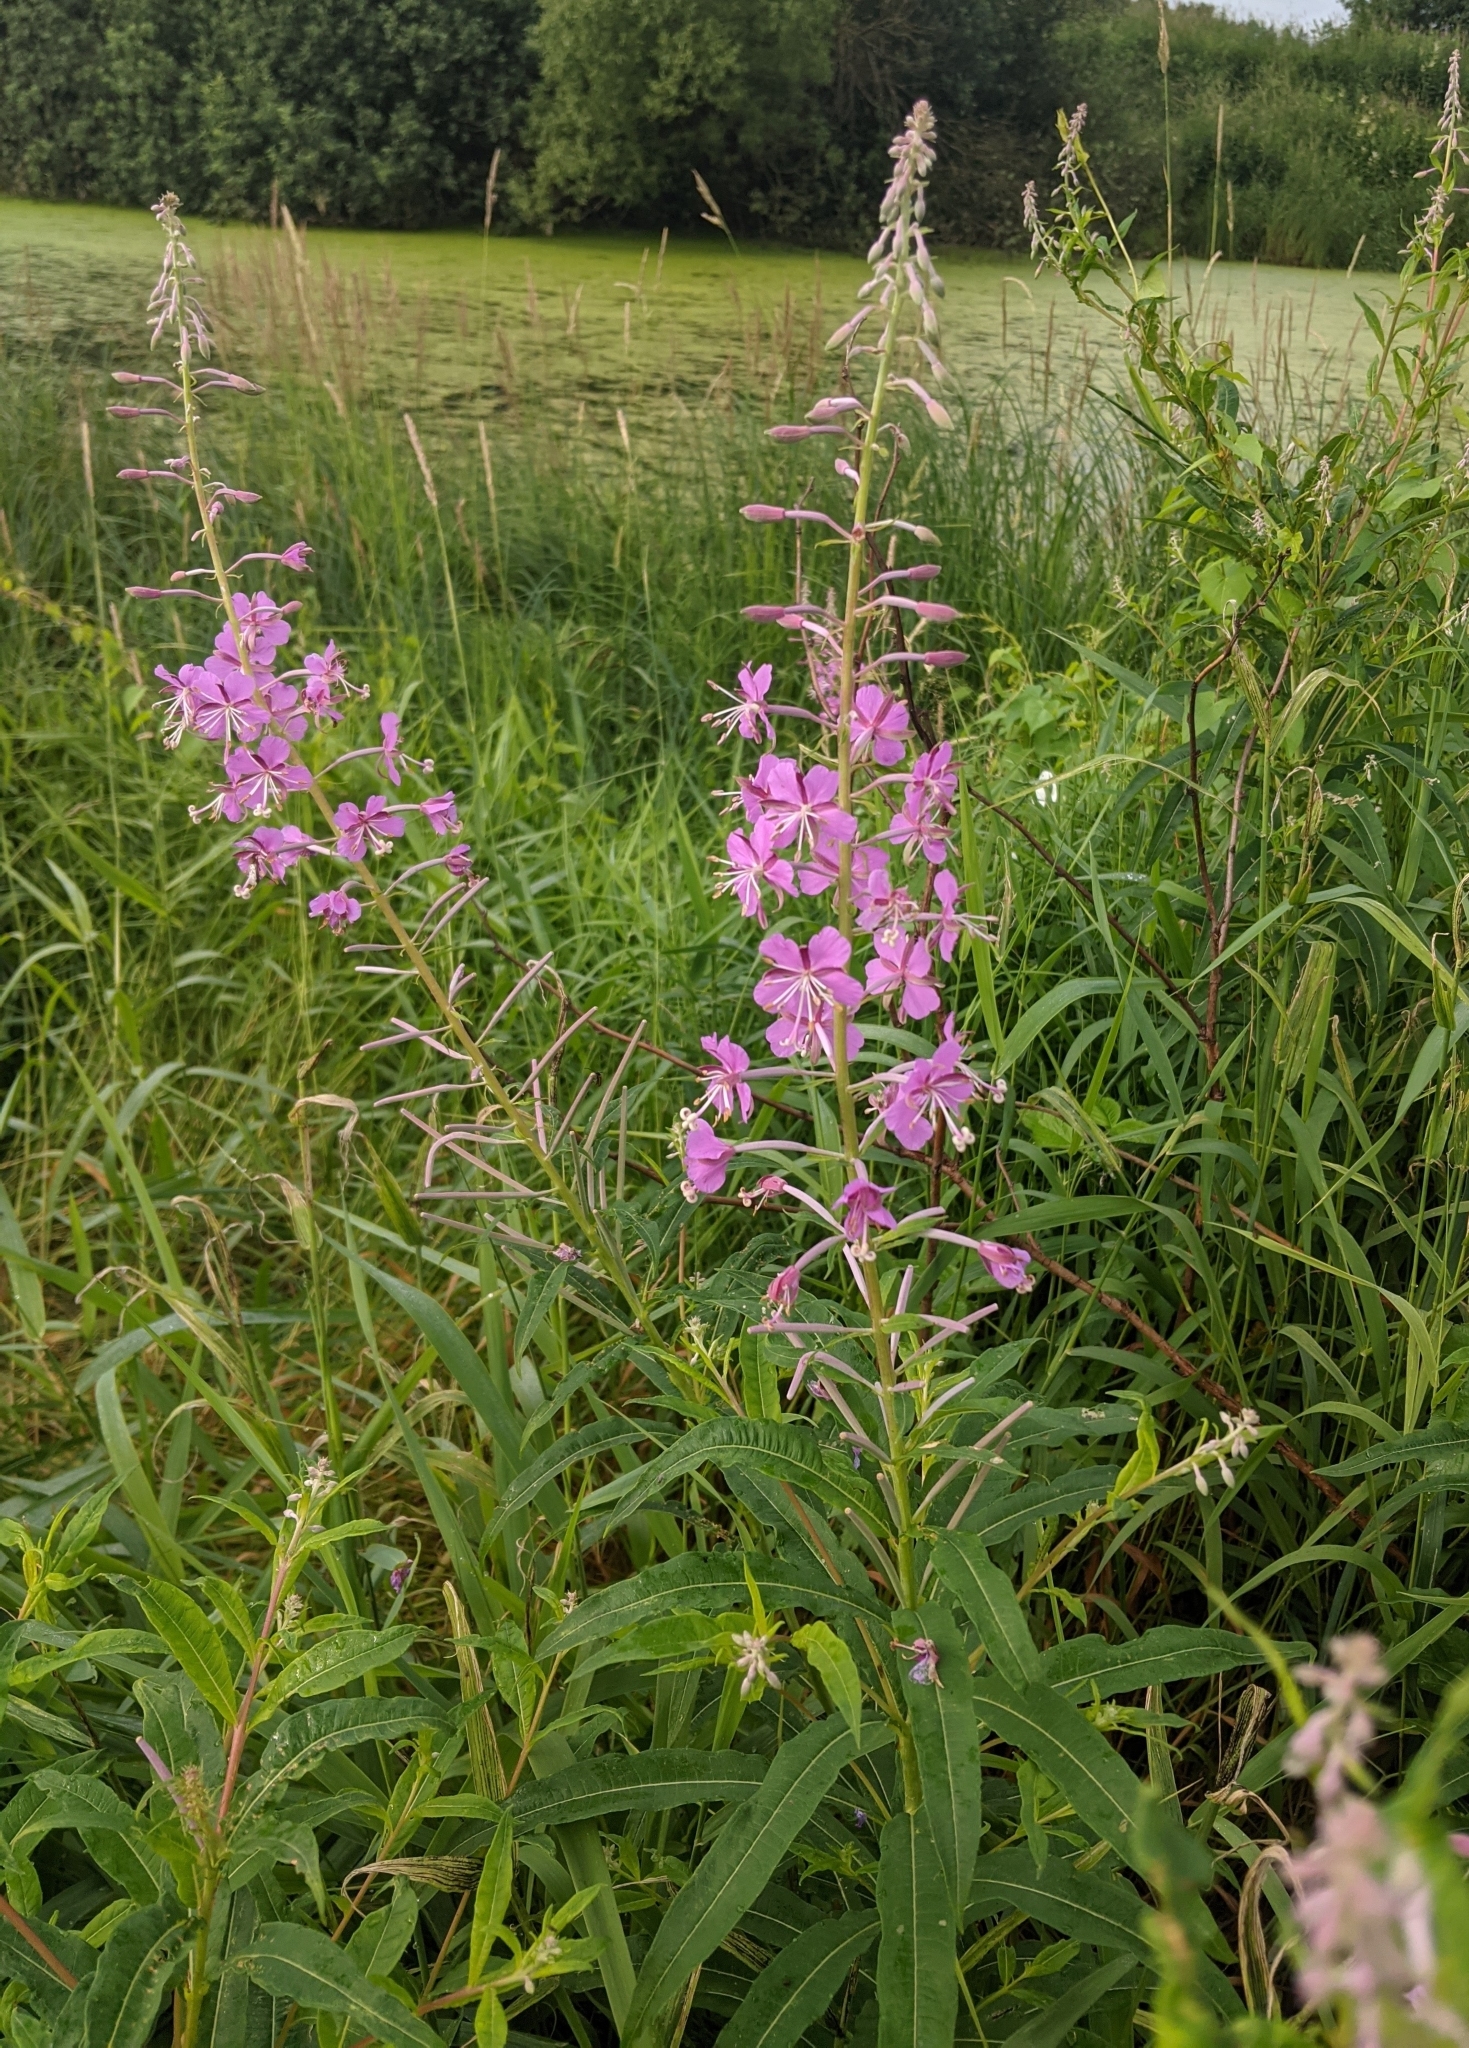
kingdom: Plantae
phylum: Tracheophyta
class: Magnoliopsida
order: Myrtales
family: Onagraceae
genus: Chamaenerion
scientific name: Chamaenerion angustifolium
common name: Fireweed
